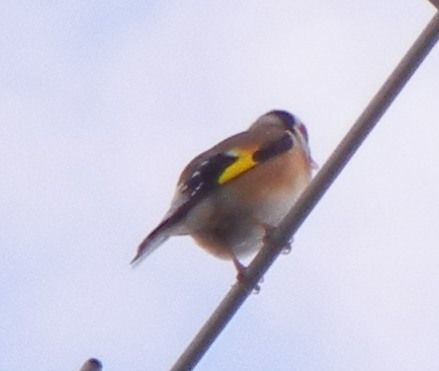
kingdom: Animalia
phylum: Chordata
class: Aves
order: Passeriformes
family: Fringillidae
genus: Carduelis
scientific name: Carduelis carduelis
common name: European goldfinch
